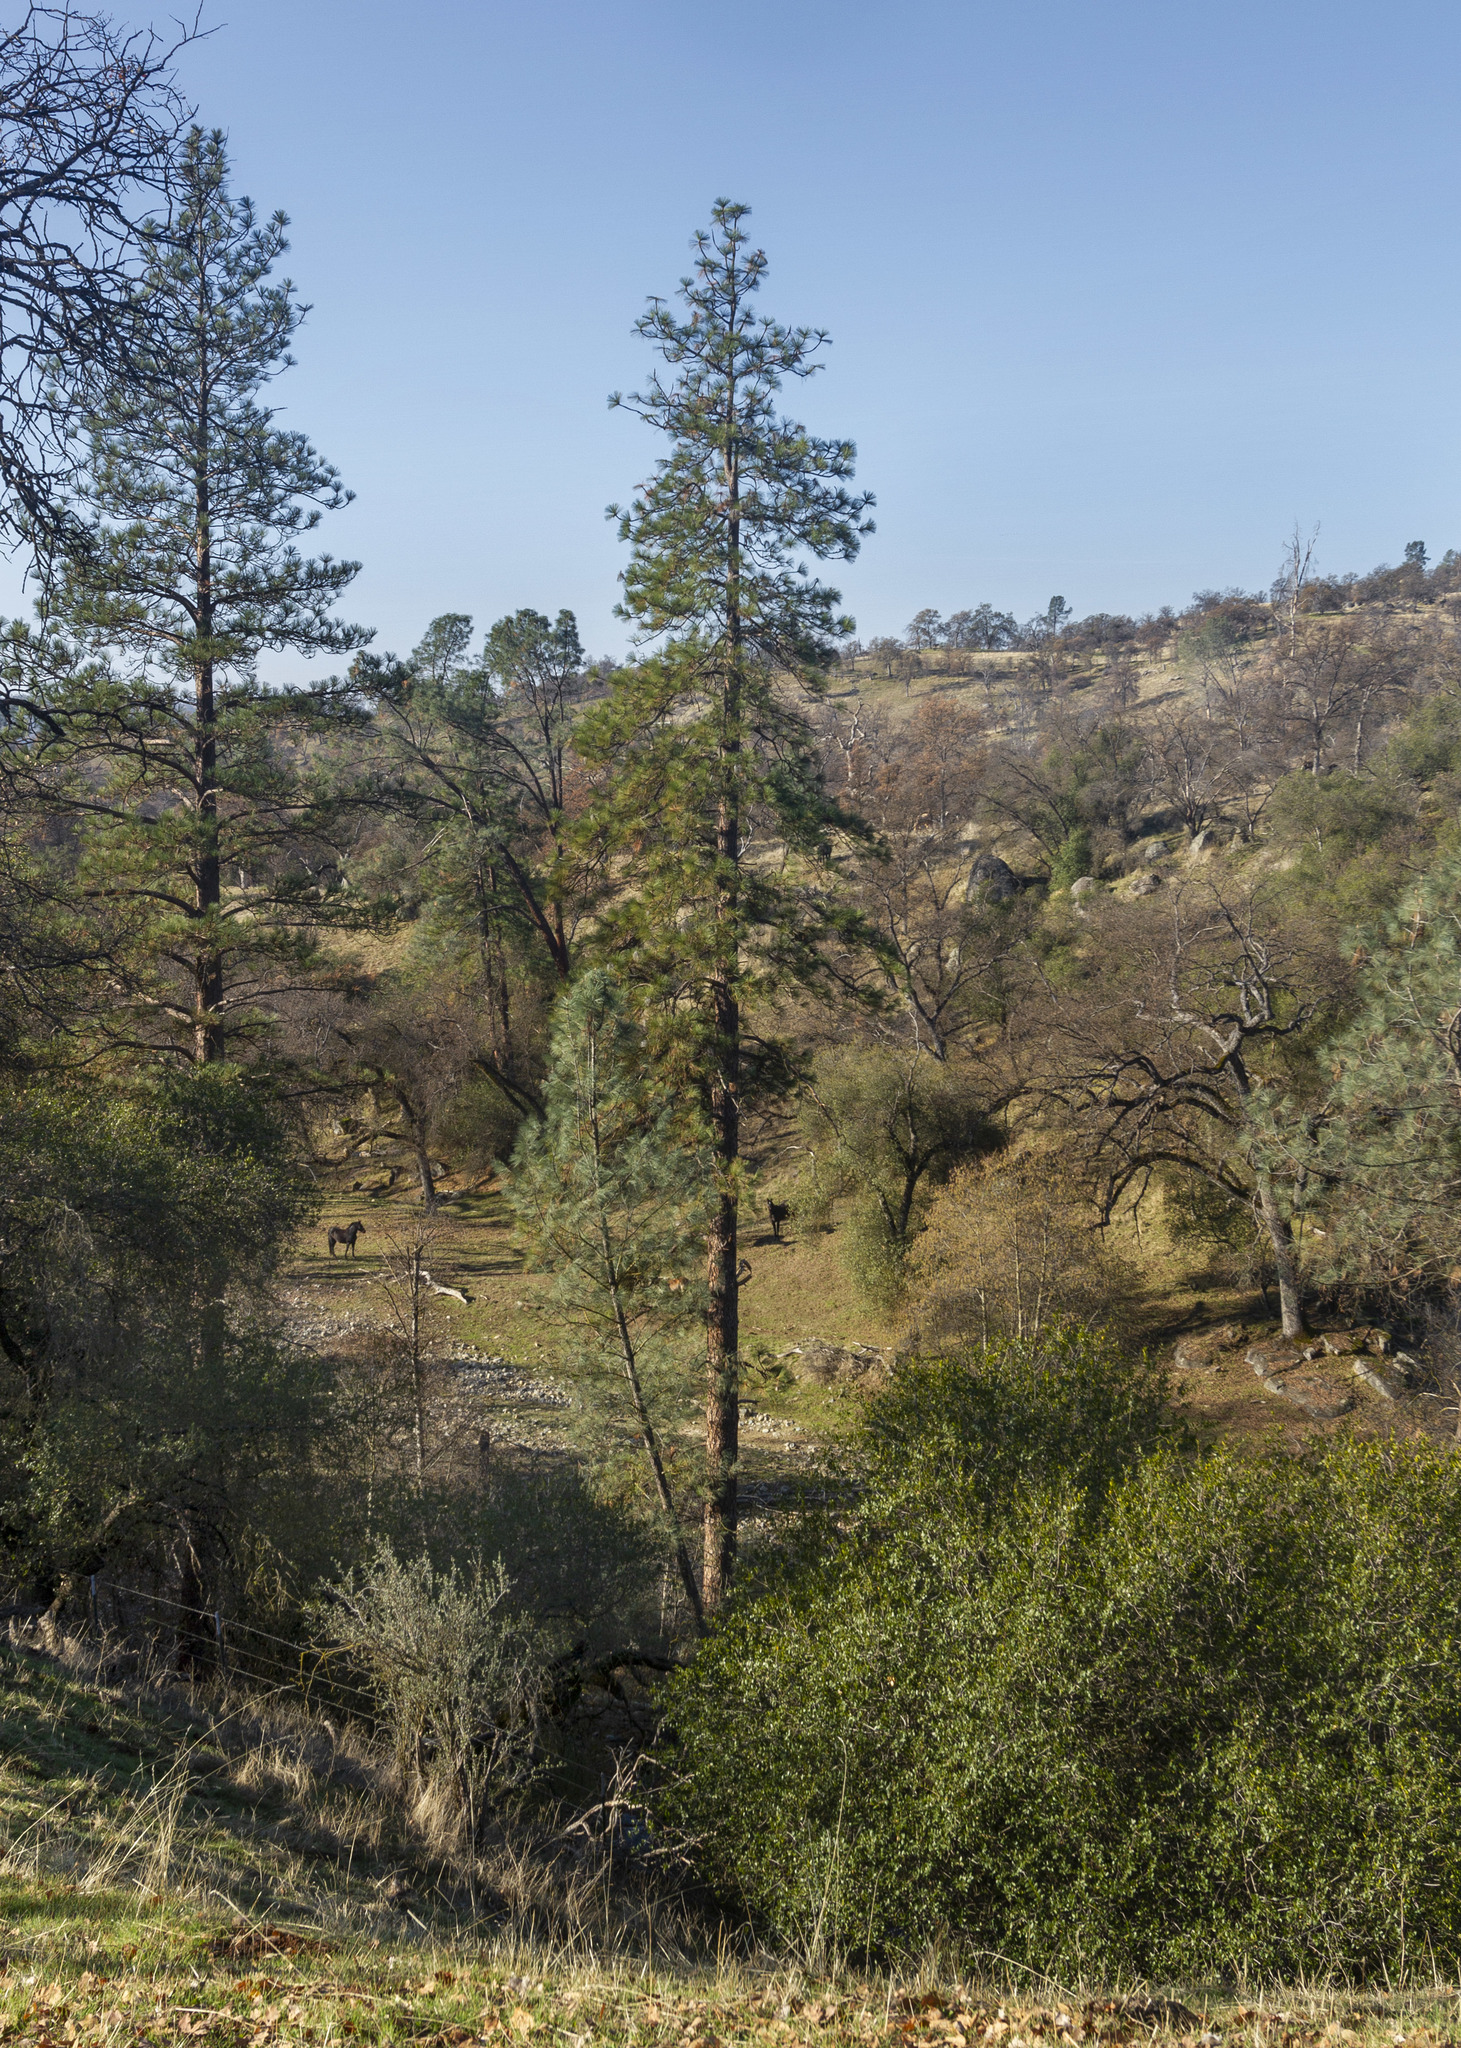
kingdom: Plantae
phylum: Tracheophyta
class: Pinopsida
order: Pinales
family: Pinaceae
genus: Pinus
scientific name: Pinus ponderosa
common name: Western yellow-pine
